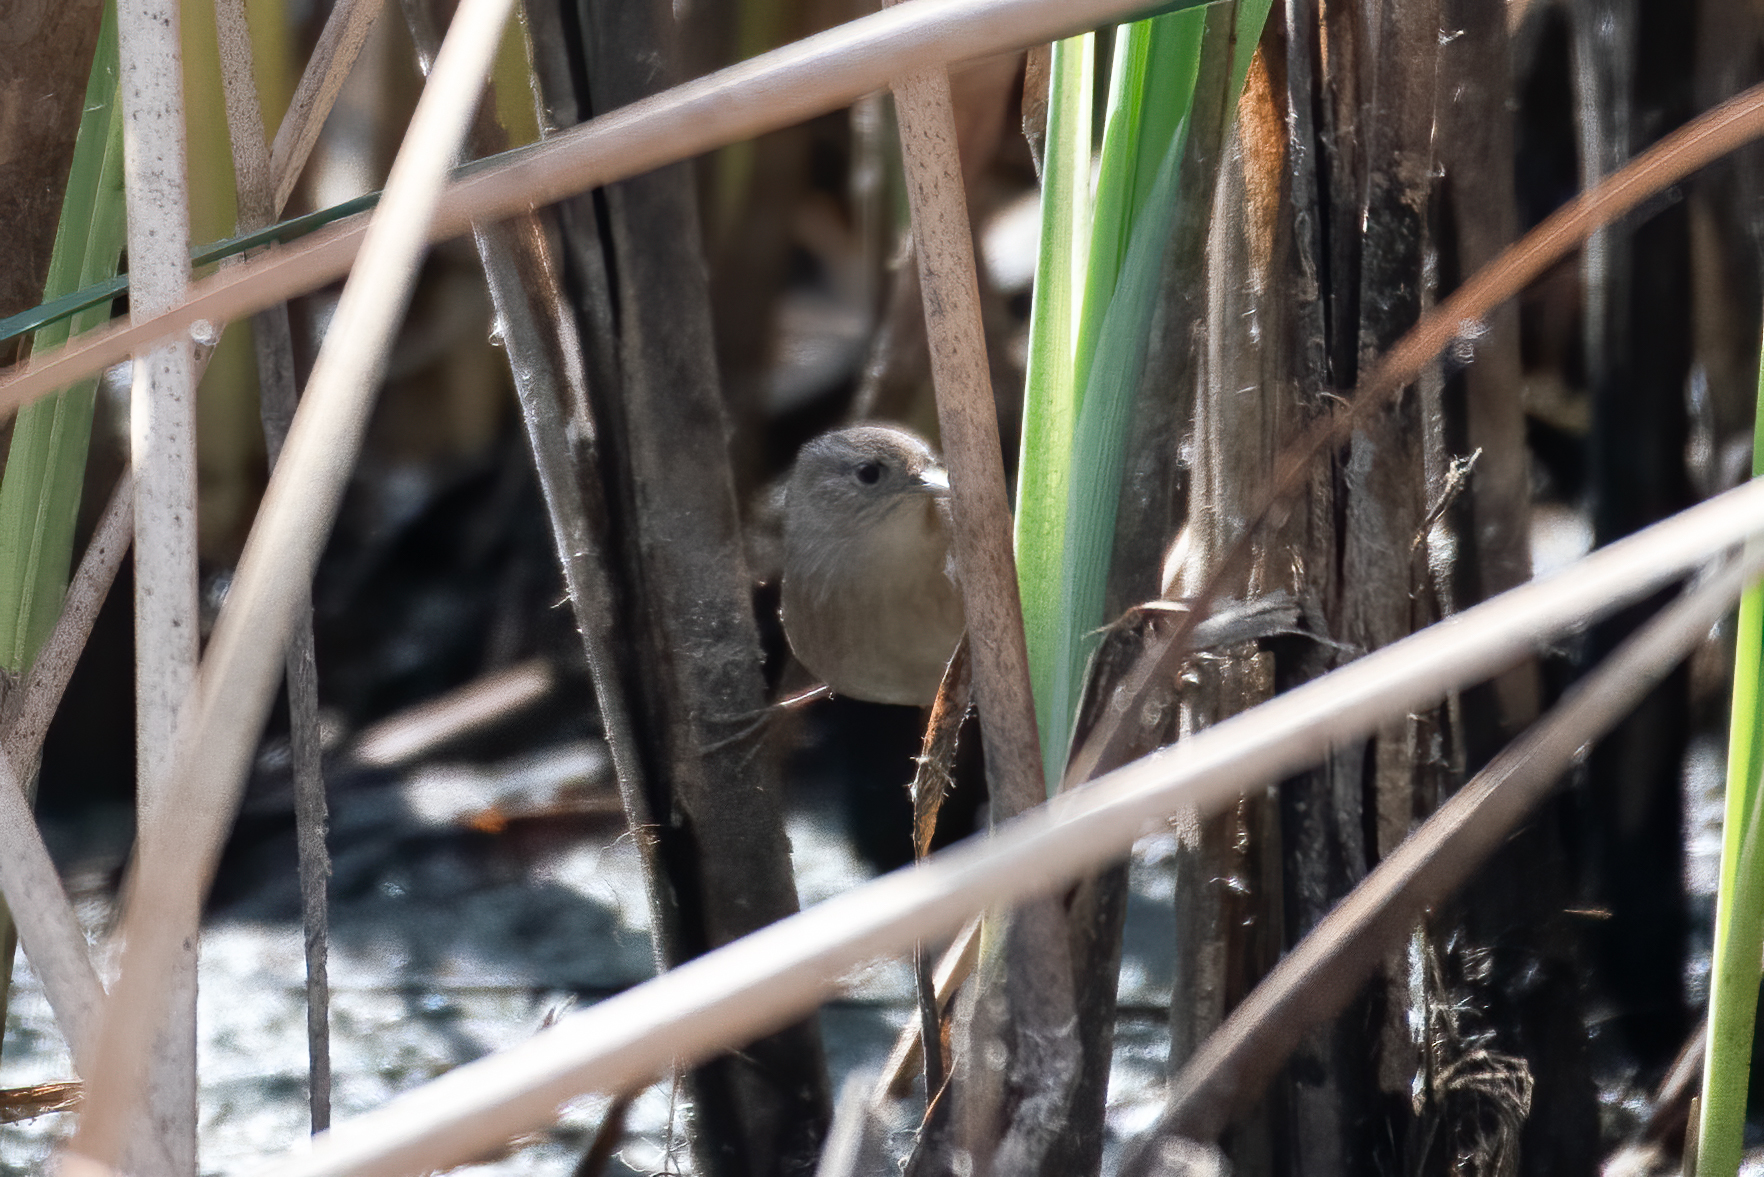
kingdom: Animalia
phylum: Chordata
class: Aves
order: Passeriformes
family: Troglodytidae
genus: Cistothorus
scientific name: Cistothorus palustris
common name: Marsh wren
